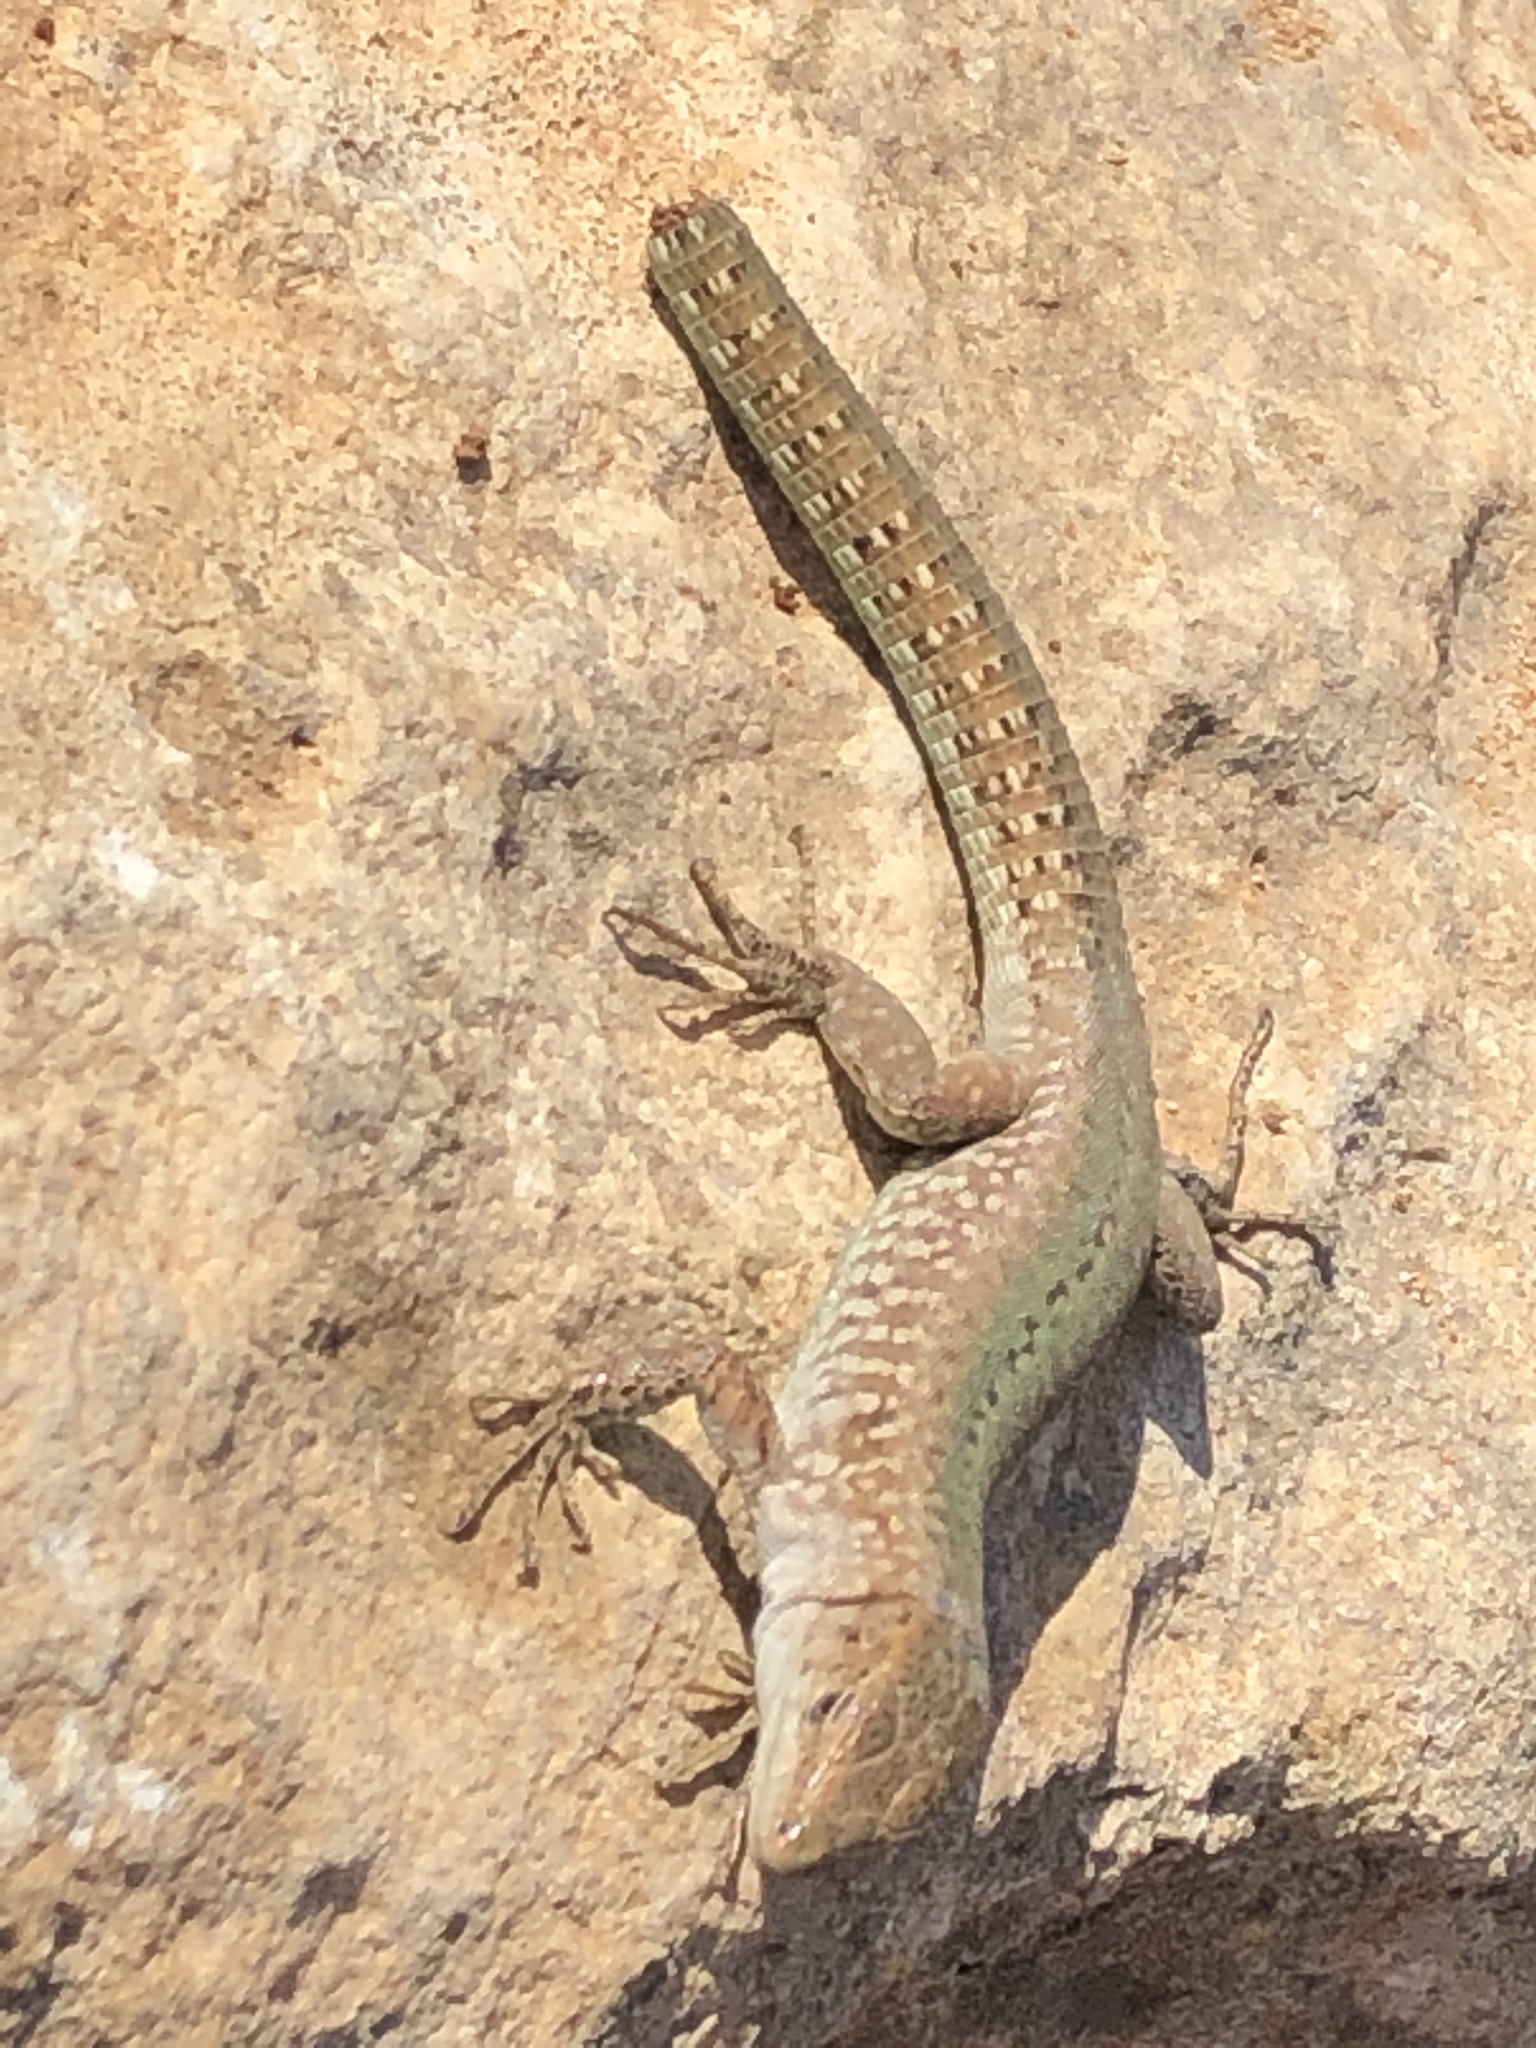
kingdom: Animalia
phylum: Chordata
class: Squamata
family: Lacertidae
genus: Podarcis
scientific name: Podarcis filfolensis
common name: Maltese wall lizard
